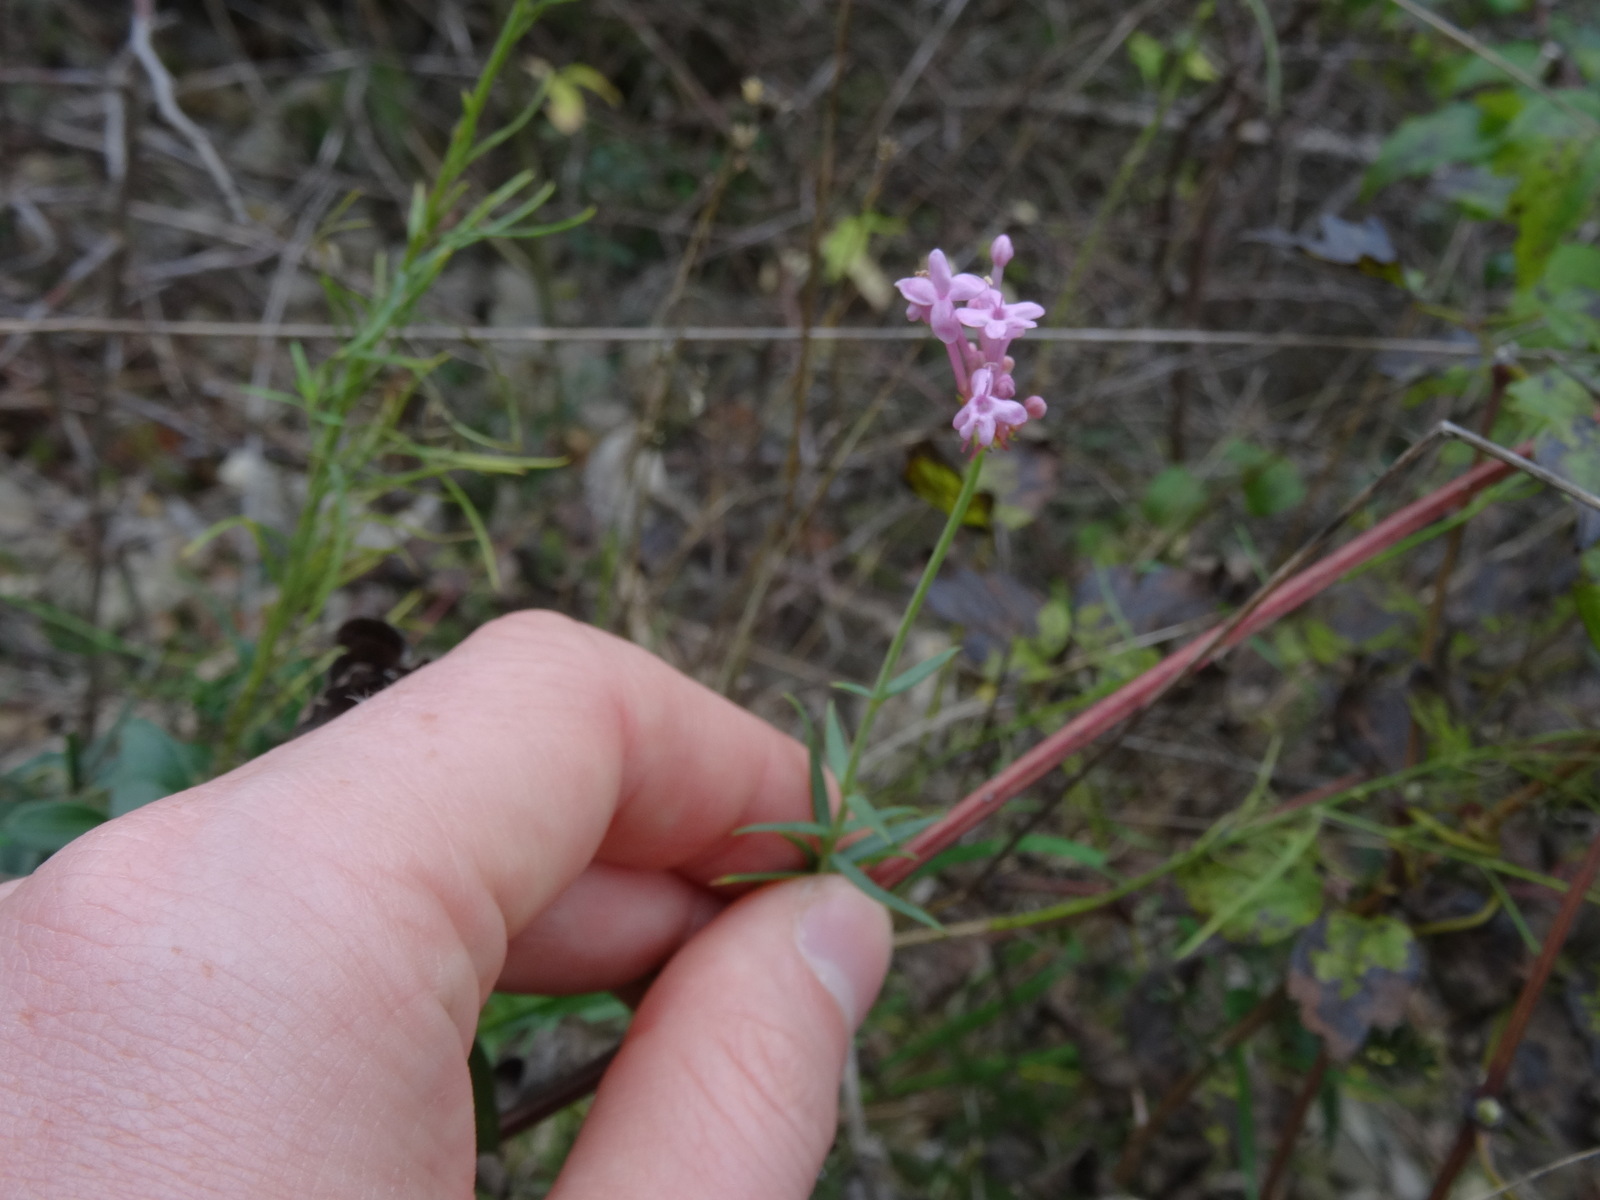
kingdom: Plantae
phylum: Tracheophyta
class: Magnoliopsida
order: Dipsacales
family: Caprifoliaceae
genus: Centranthus
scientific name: Centranthus lecoqii
